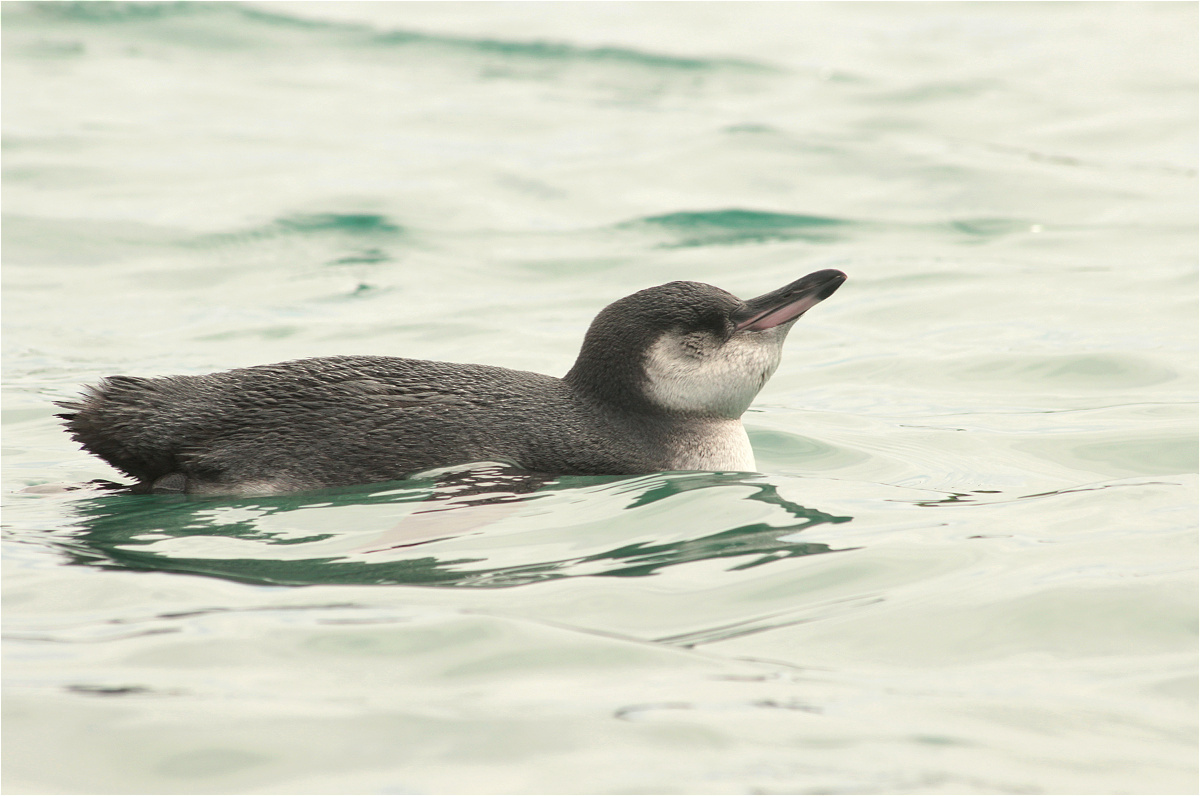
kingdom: Animalia
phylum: Chordata
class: Aves
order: Sphenisciformes
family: Spheniscidae
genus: Spheniscus
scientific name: Spheniscus mendiculus
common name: Galapagos penguin
